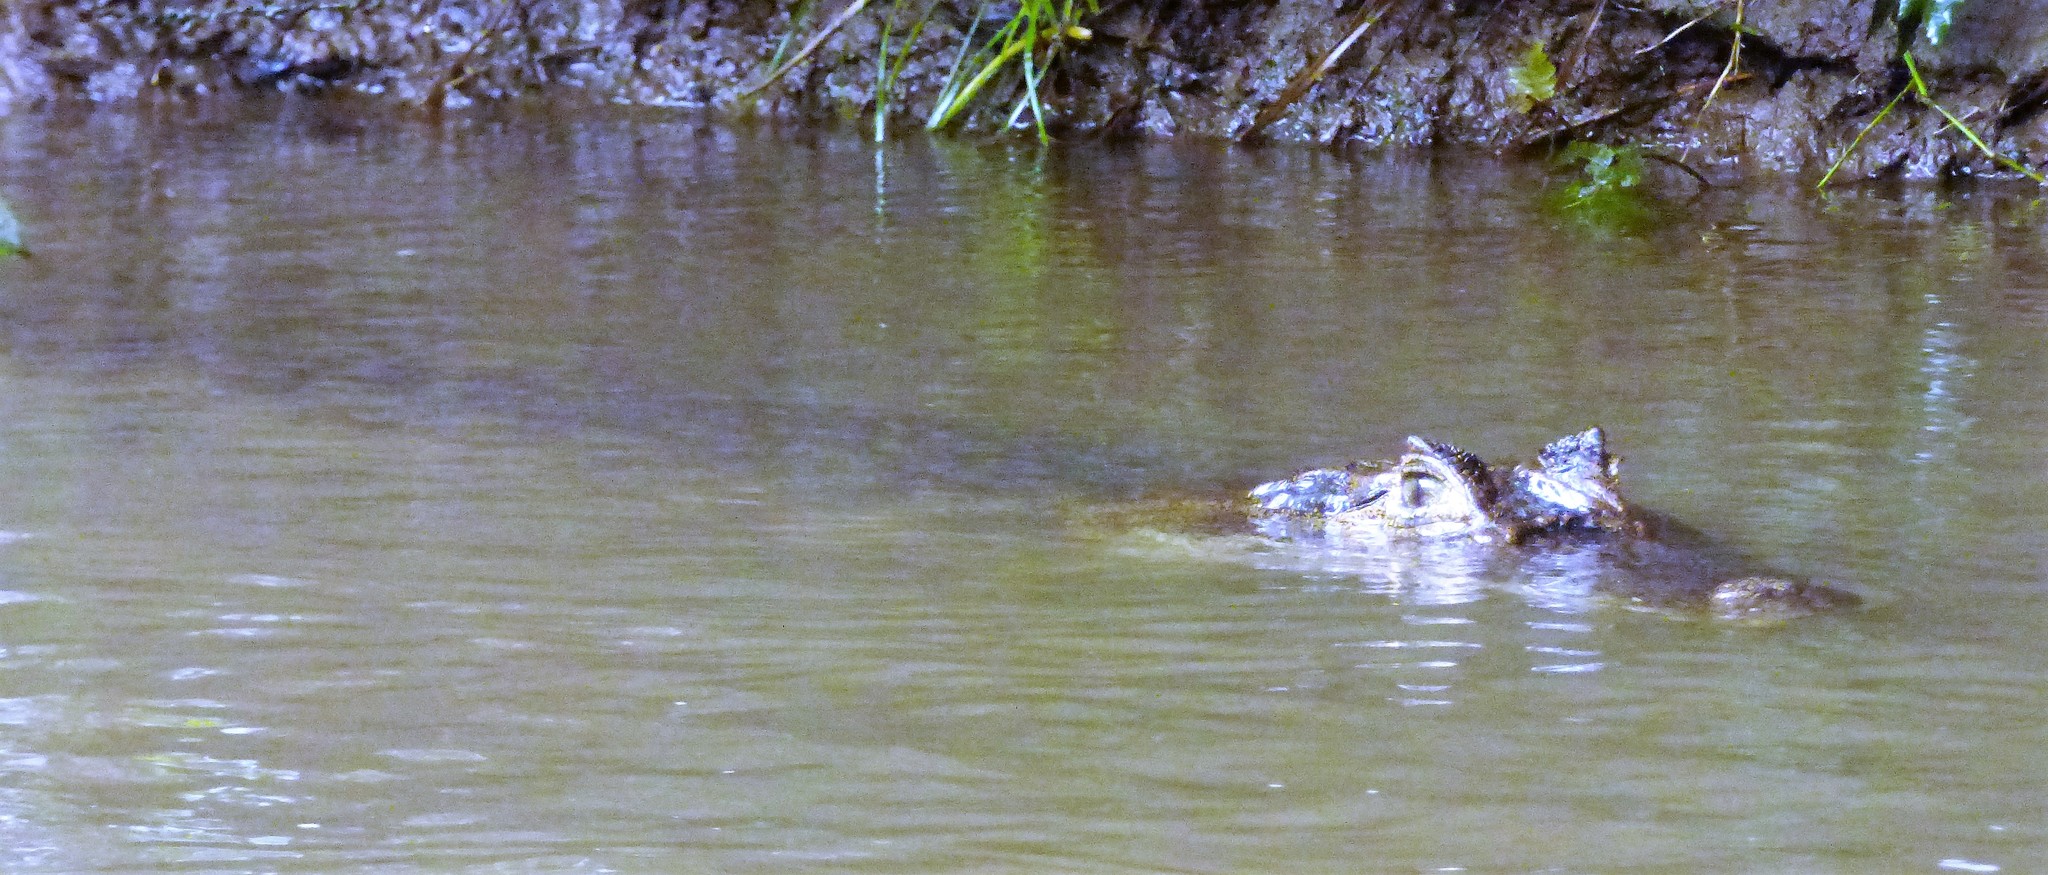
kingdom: Animalia
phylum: Chordata
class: Crocodylia
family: Alligatoridae
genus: Caiman
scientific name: Caiman crocodilus
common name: Common caiman
